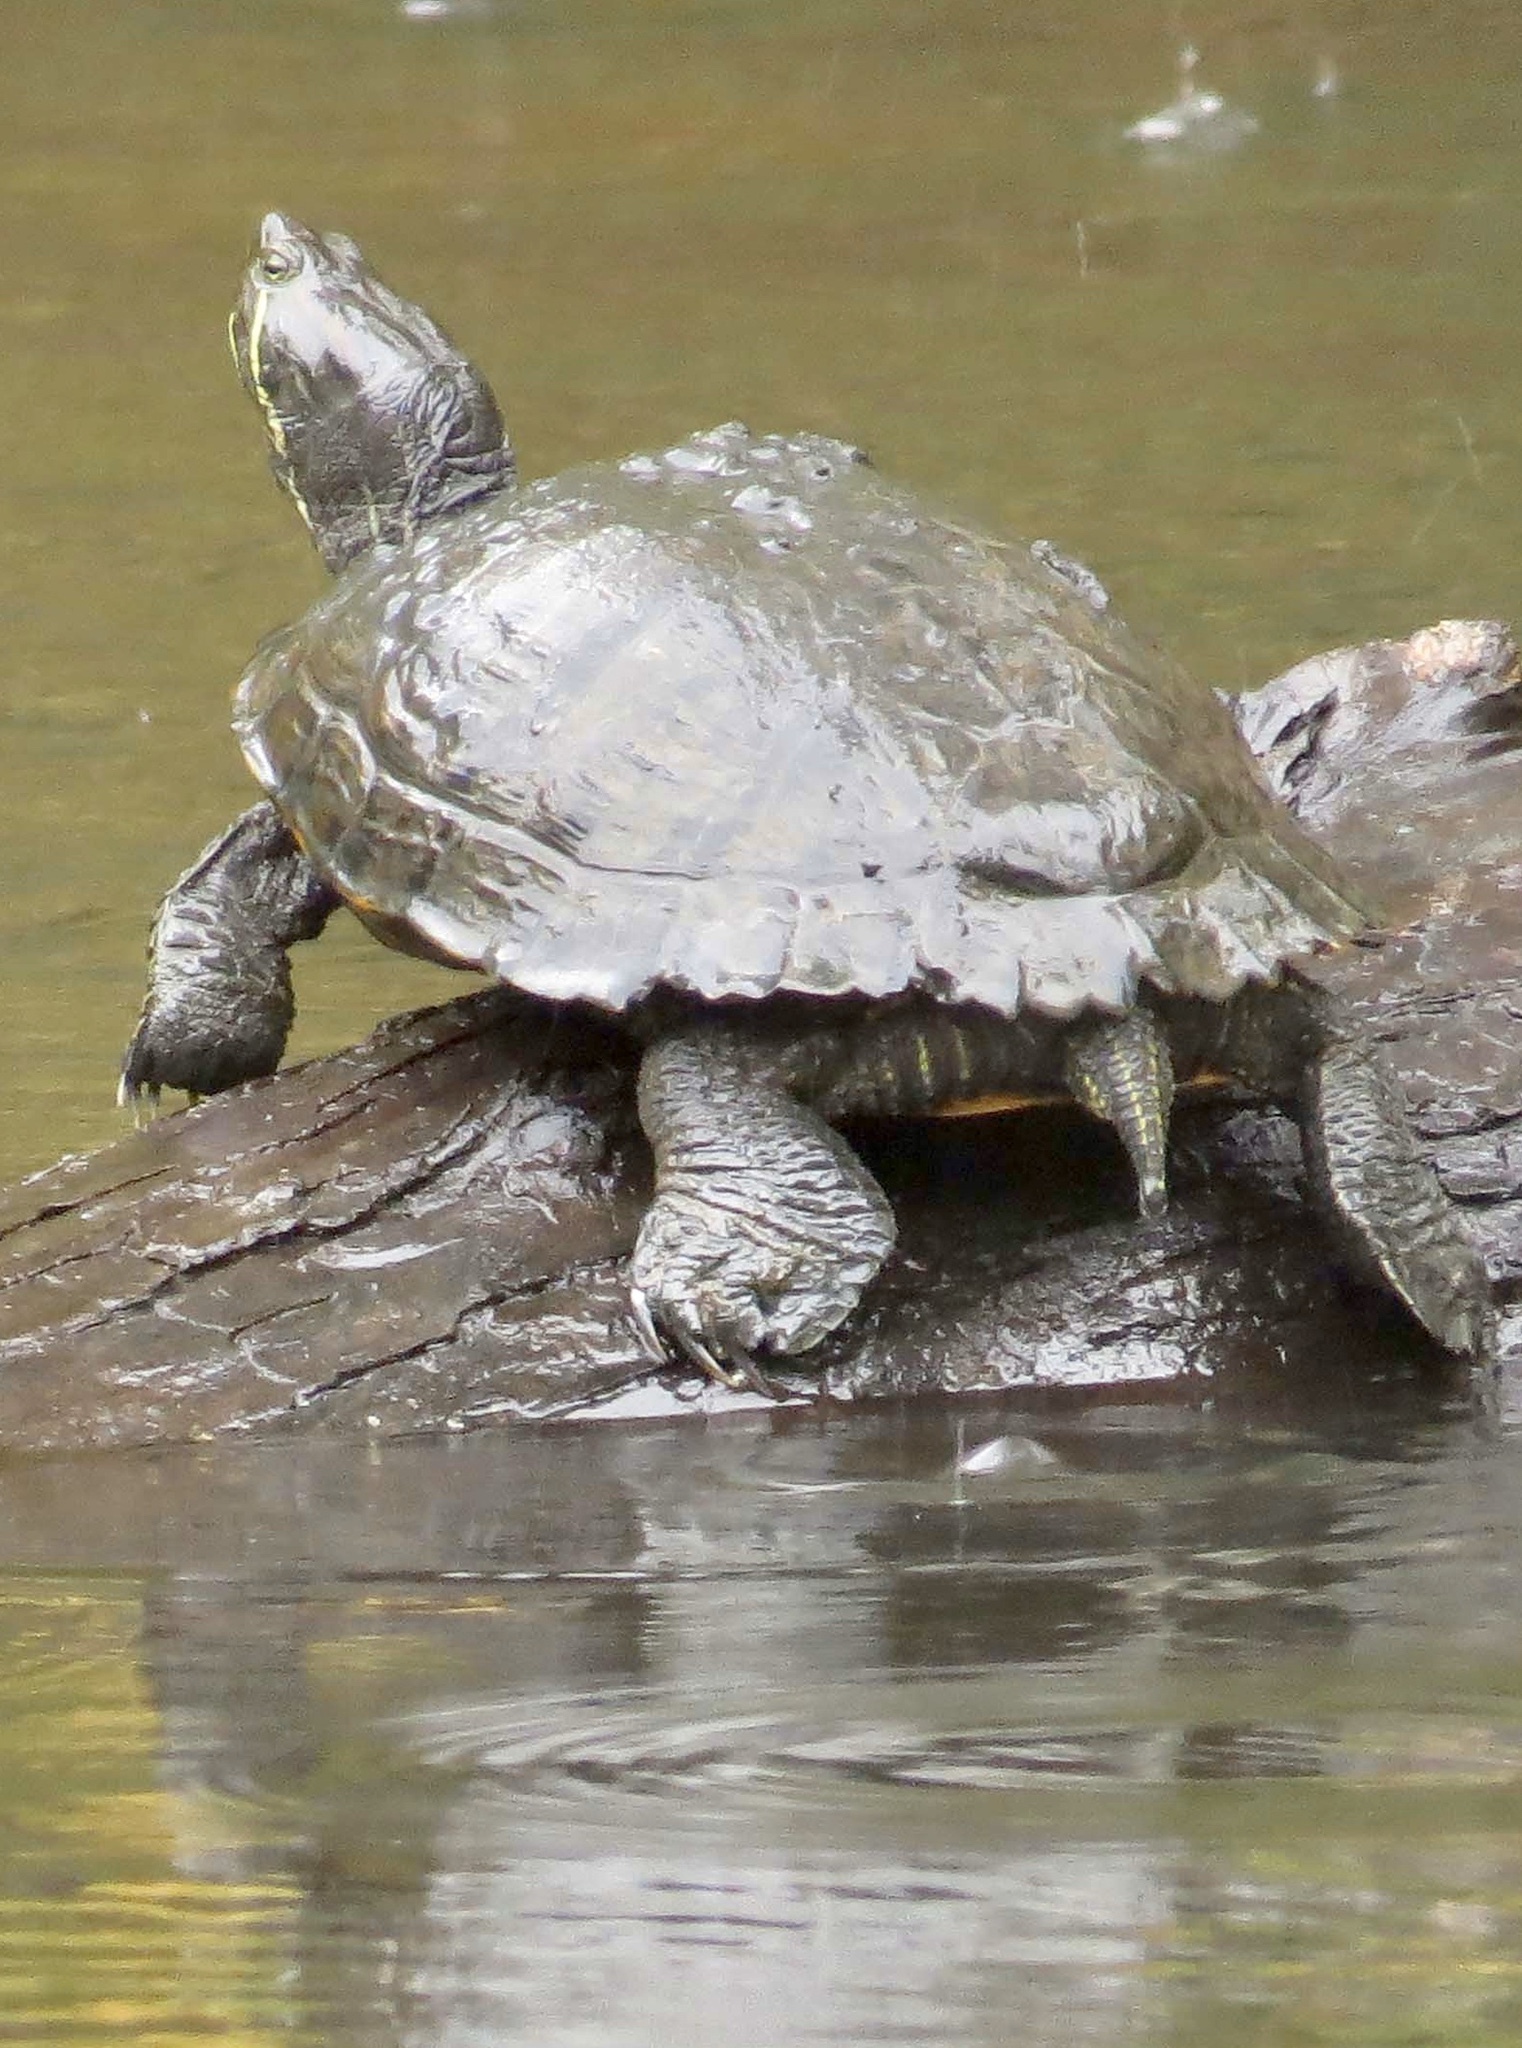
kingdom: Animalia
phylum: Chordata
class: Testudines
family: Emydidae
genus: Trachemys
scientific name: Trachemys scripta
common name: Slider
